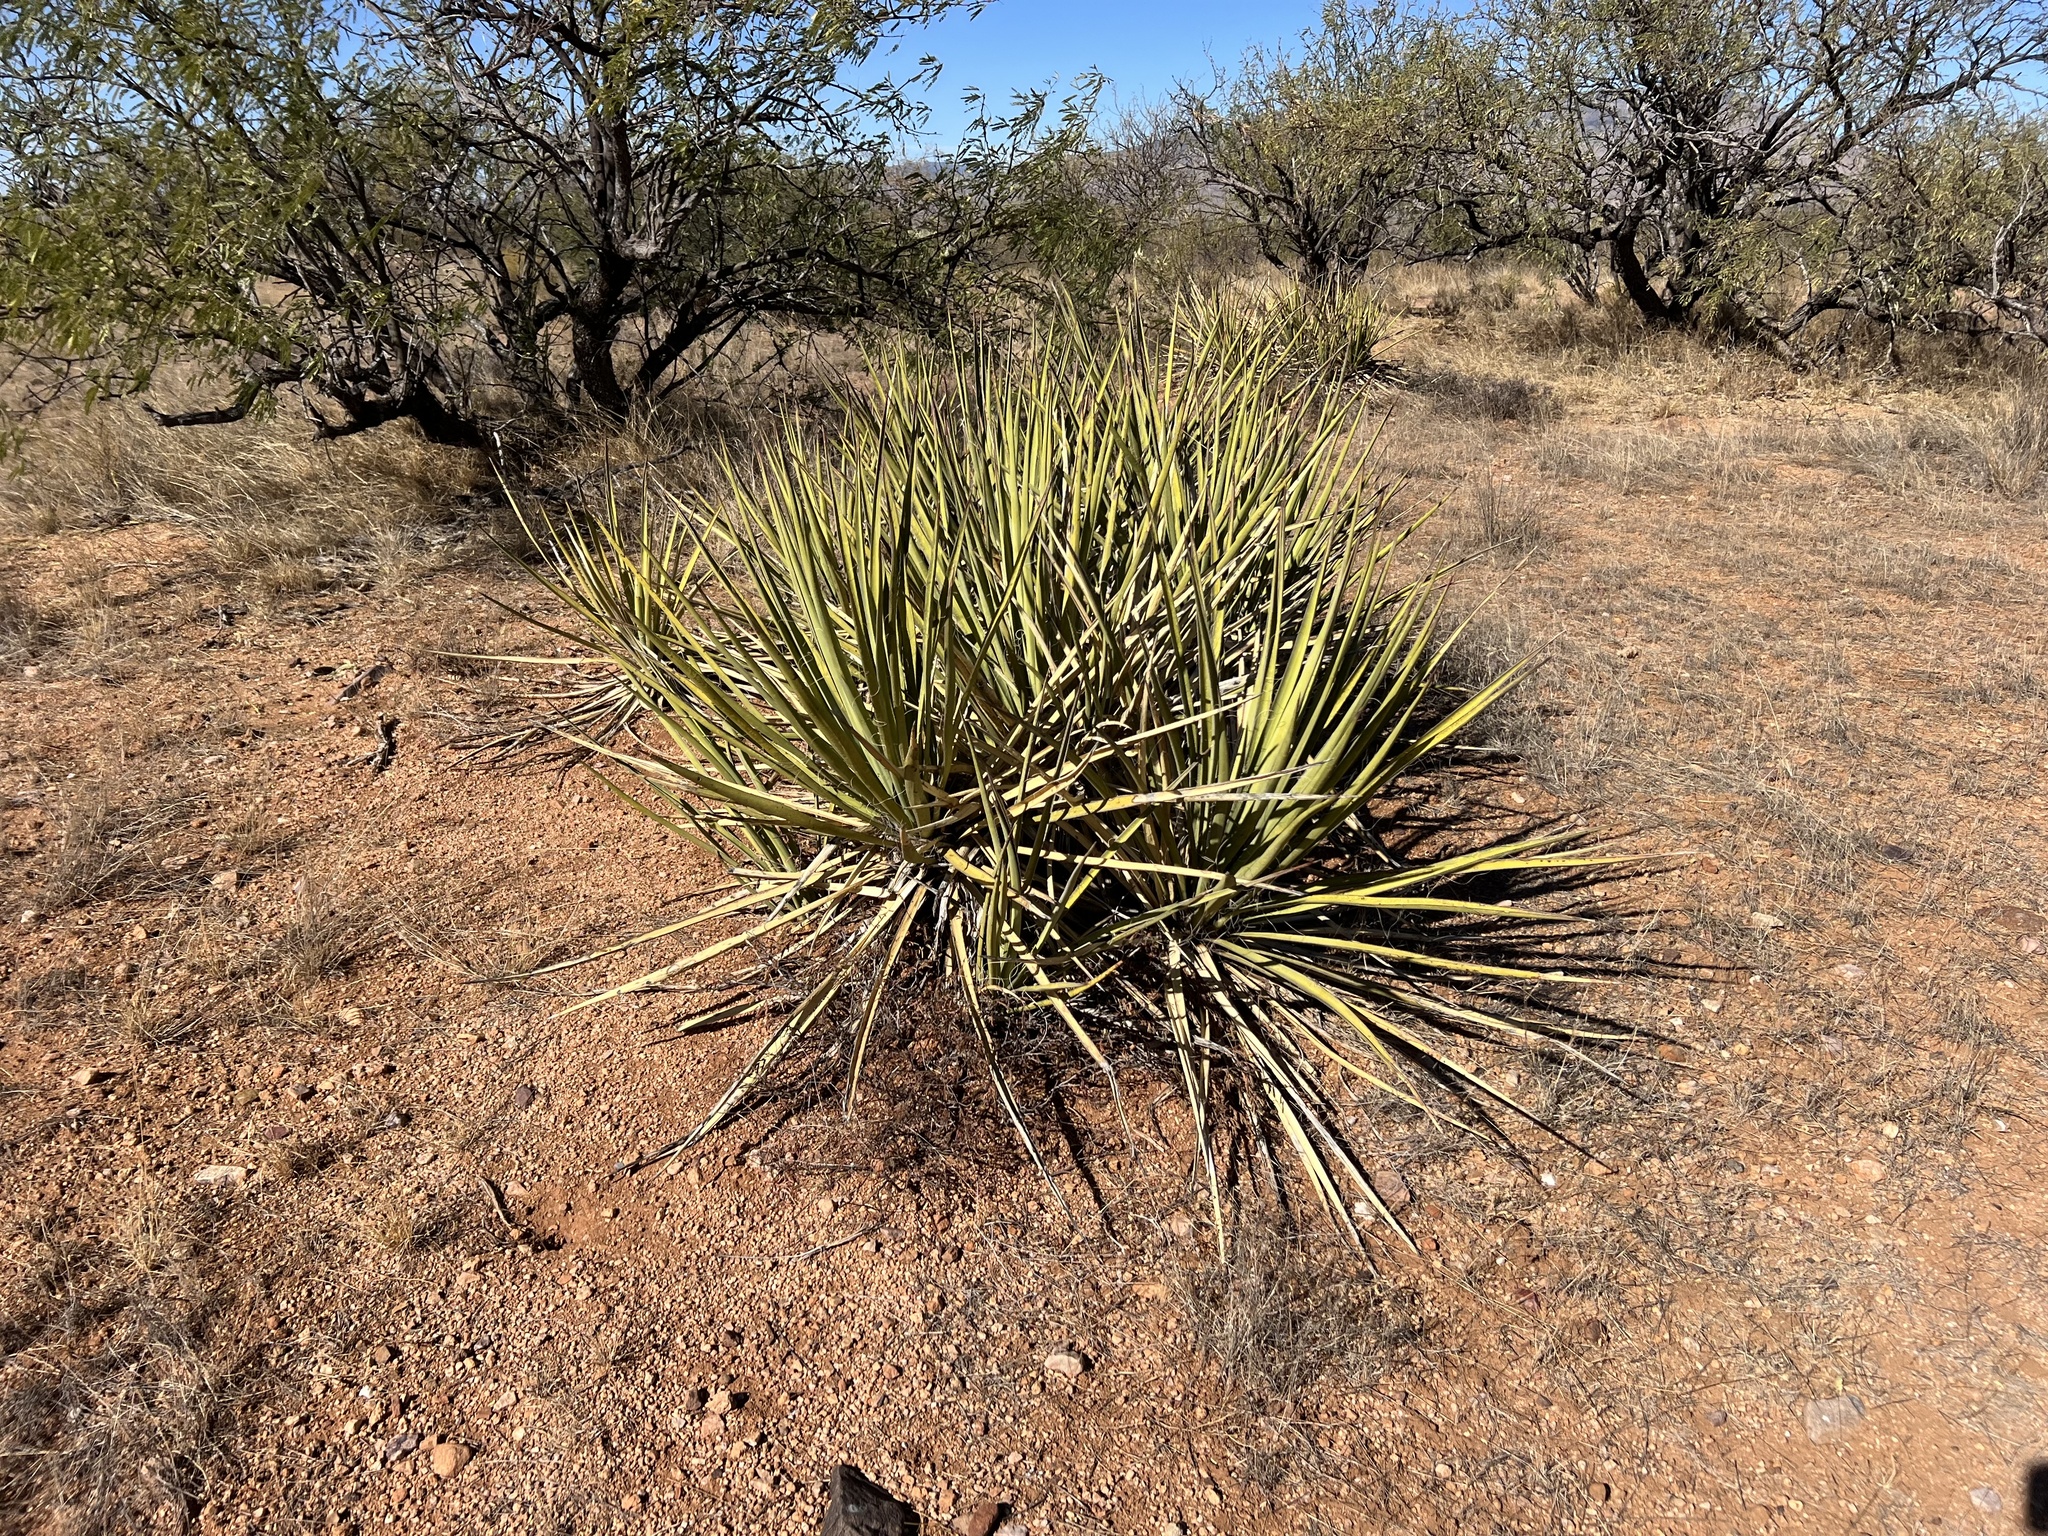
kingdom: Plantae
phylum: Tracheophyta
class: Liliopsida
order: Asparagales
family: Asparagaceae
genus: Yucca
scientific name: Yucca baccata
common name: Banana yucca
